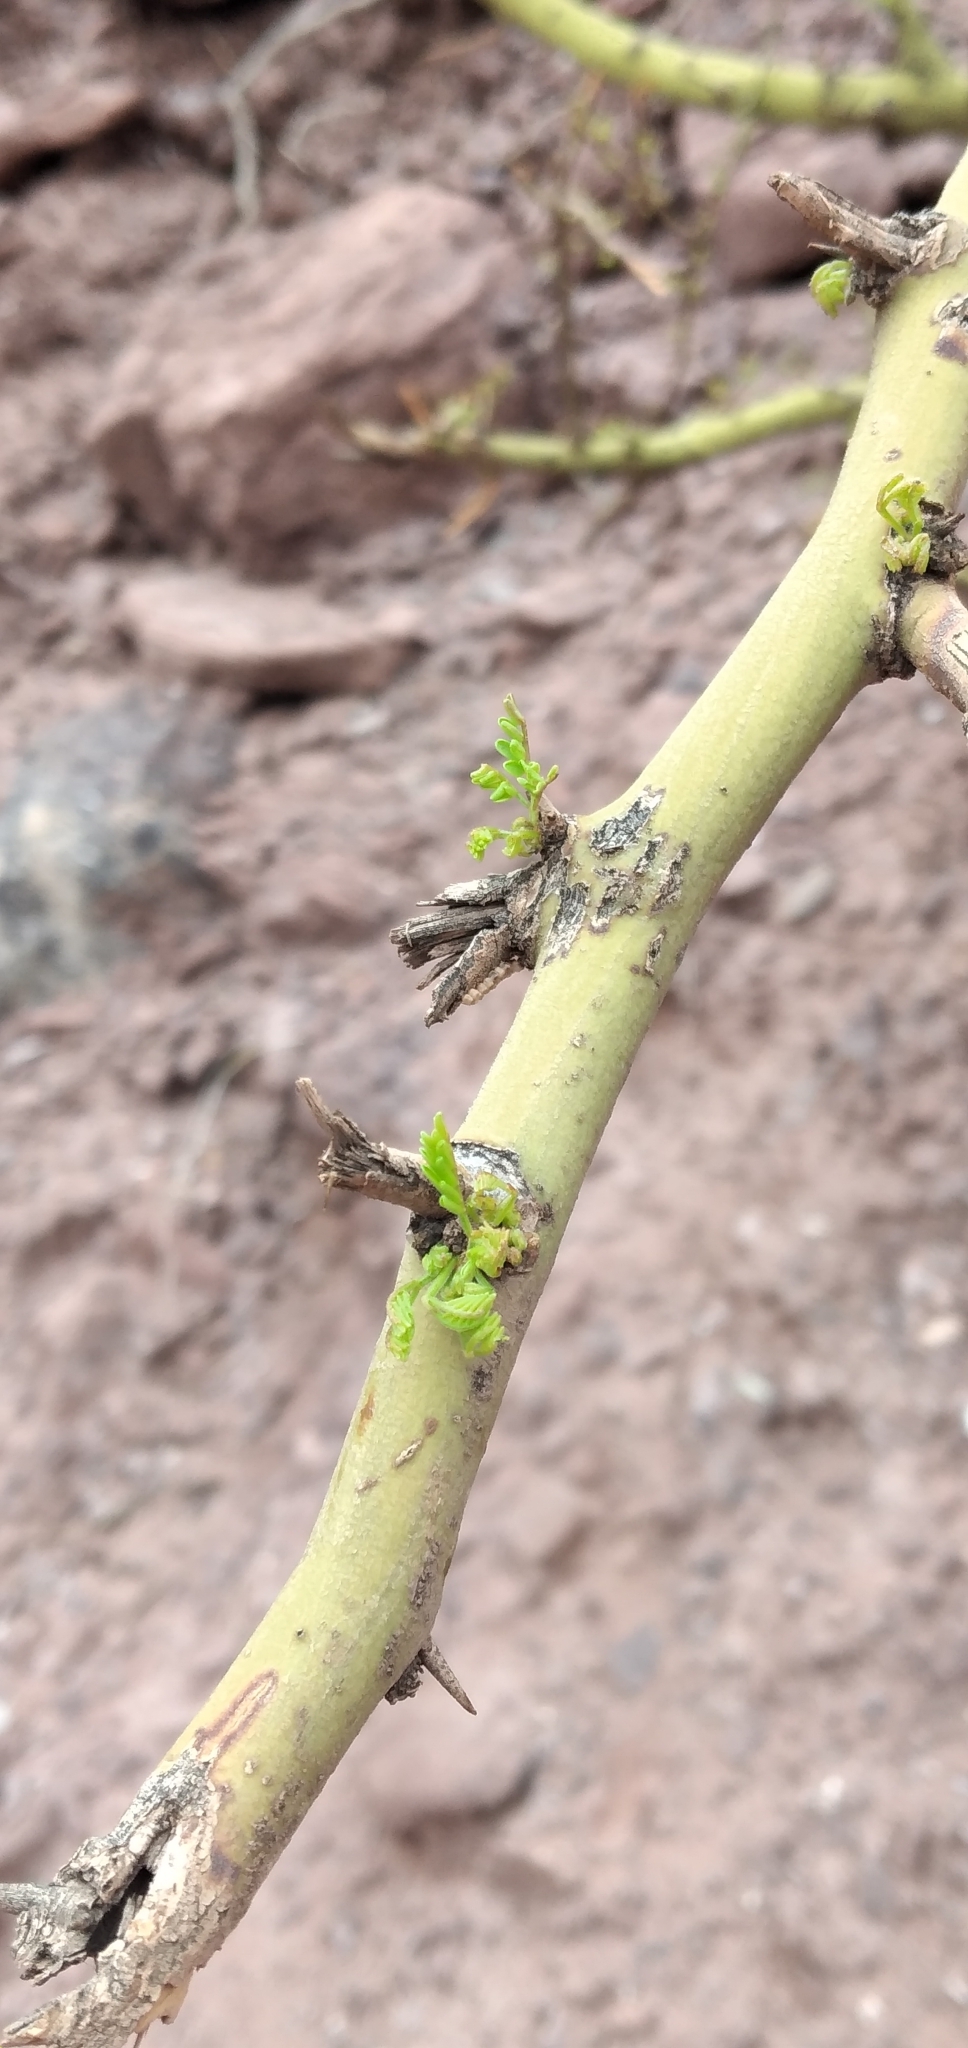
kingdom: Plantae
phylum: Tracheophyta
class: Magnoliopsida
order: Fabales
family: Fabaceae
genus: Parkinsonia
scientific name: Parkinsonia praecox
